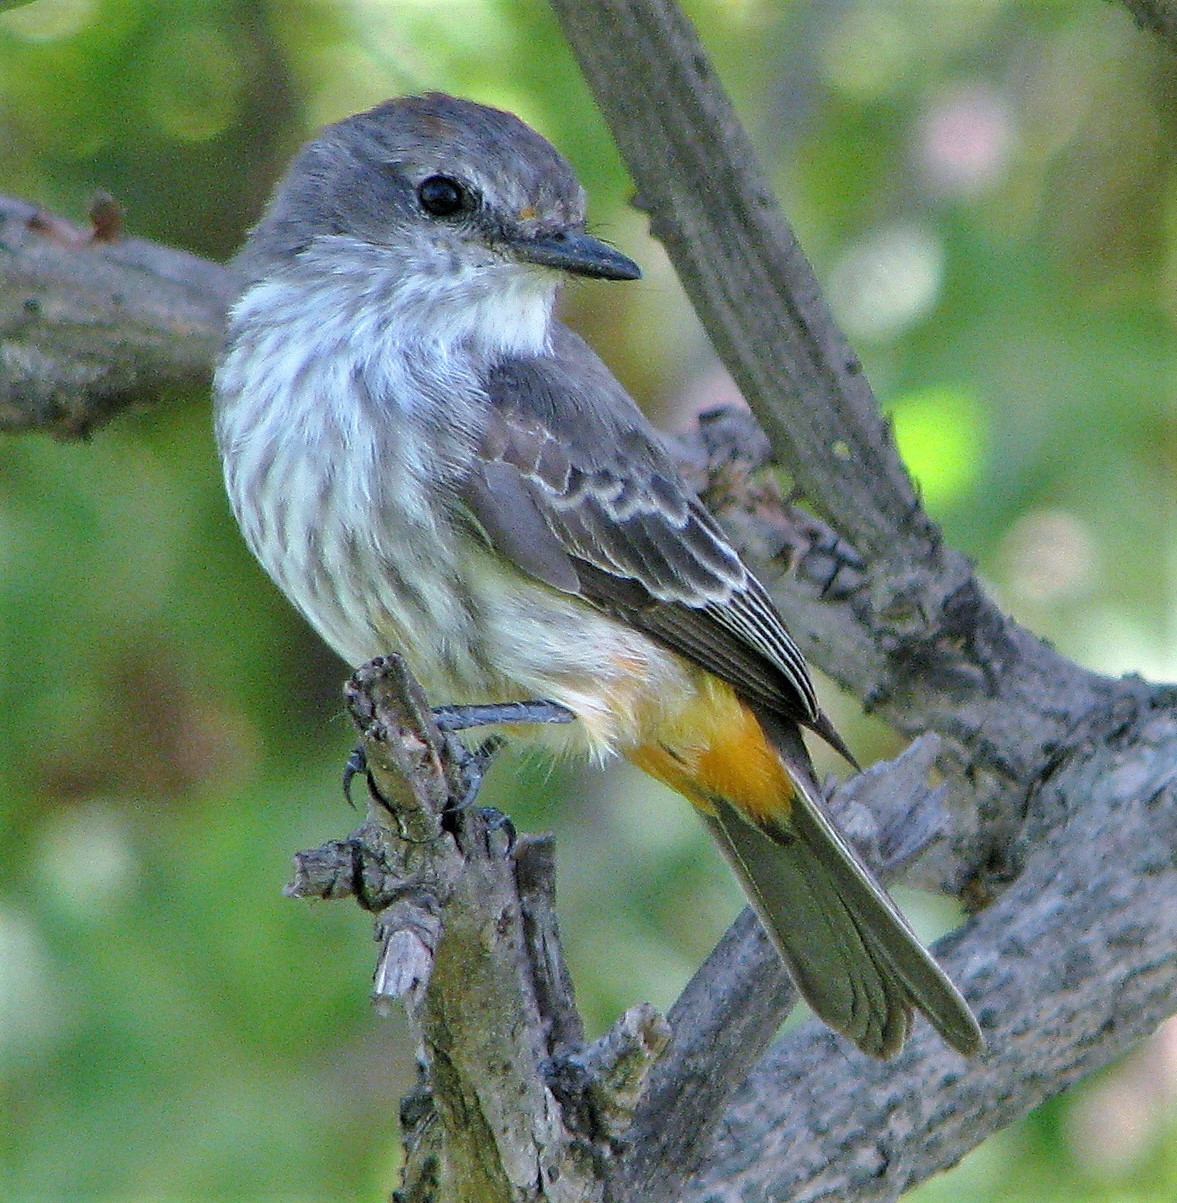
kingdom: Animalia
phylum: Chordata
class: Aves
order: Passeriformes
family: Tyrannidae
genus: Pyrocephalus
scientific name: Pyrocephalus rubinus
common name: Vermilion flycatcher
